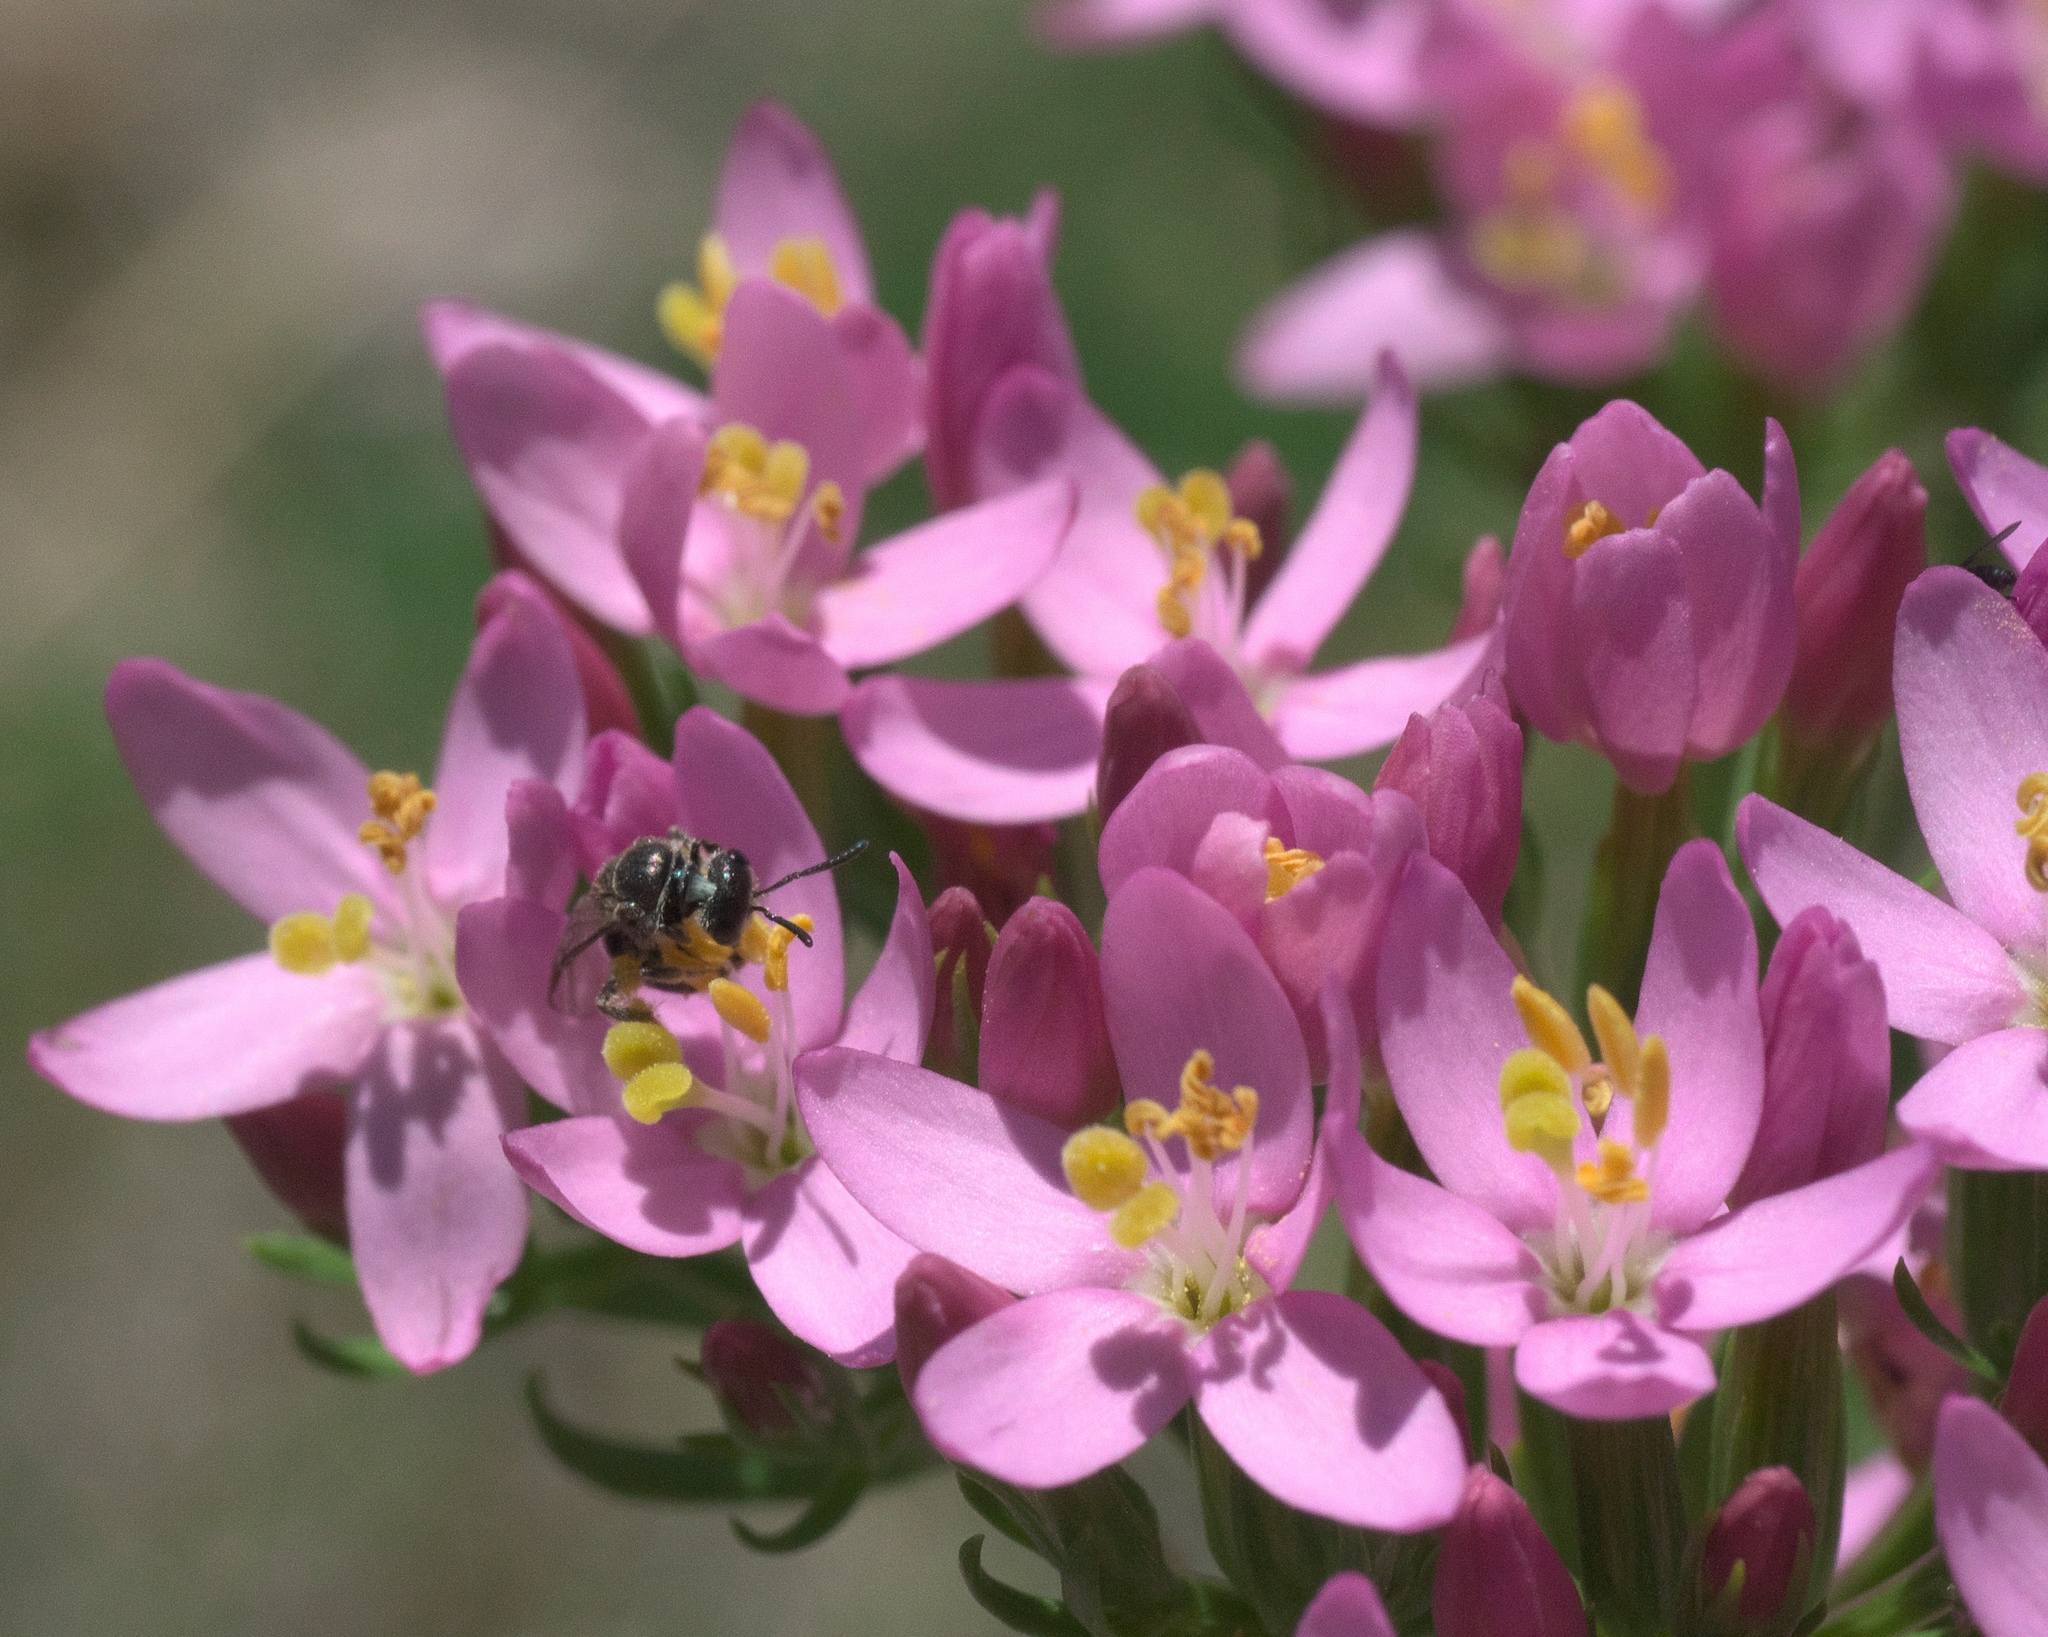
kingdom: Plantae
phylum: Tracheophyta
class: Magnoliopsida
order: Gentianales
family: Gentianaceae
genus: Centaurium
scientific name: Centaurium erythraea
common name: Common centaury
